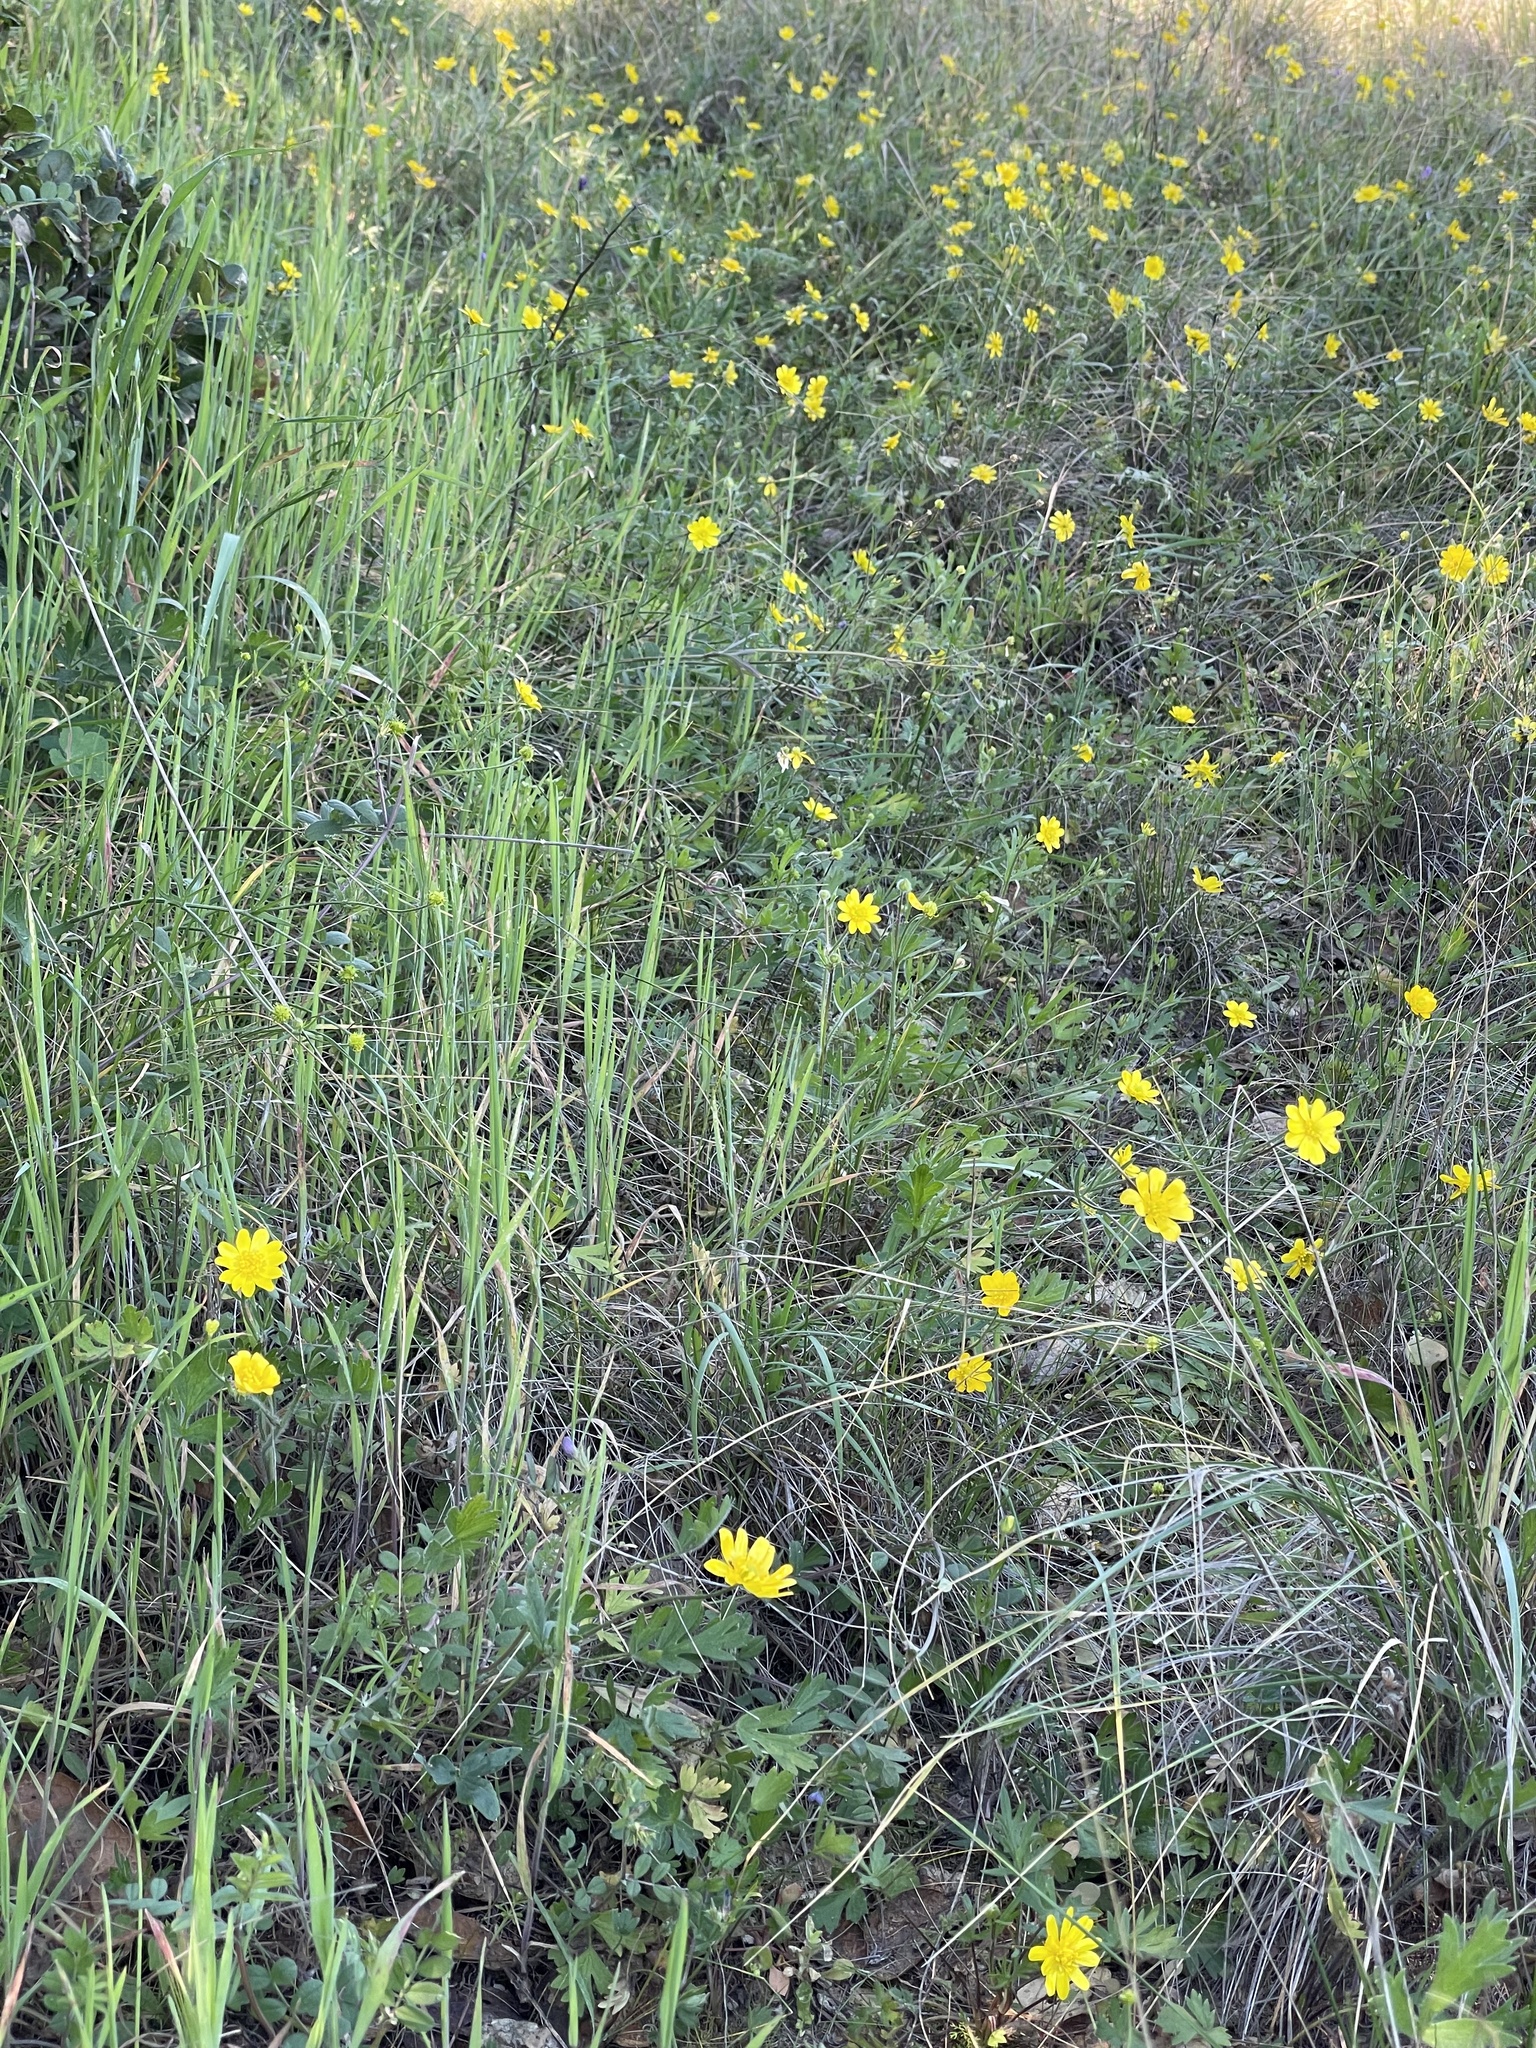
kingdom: Plantae
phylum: Tracheophyta
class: Magnoliopsida
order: Ranunculales
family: Ranunculaceae
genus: Ranunculus
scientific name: Ranunculus californicus
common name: California buttercup
